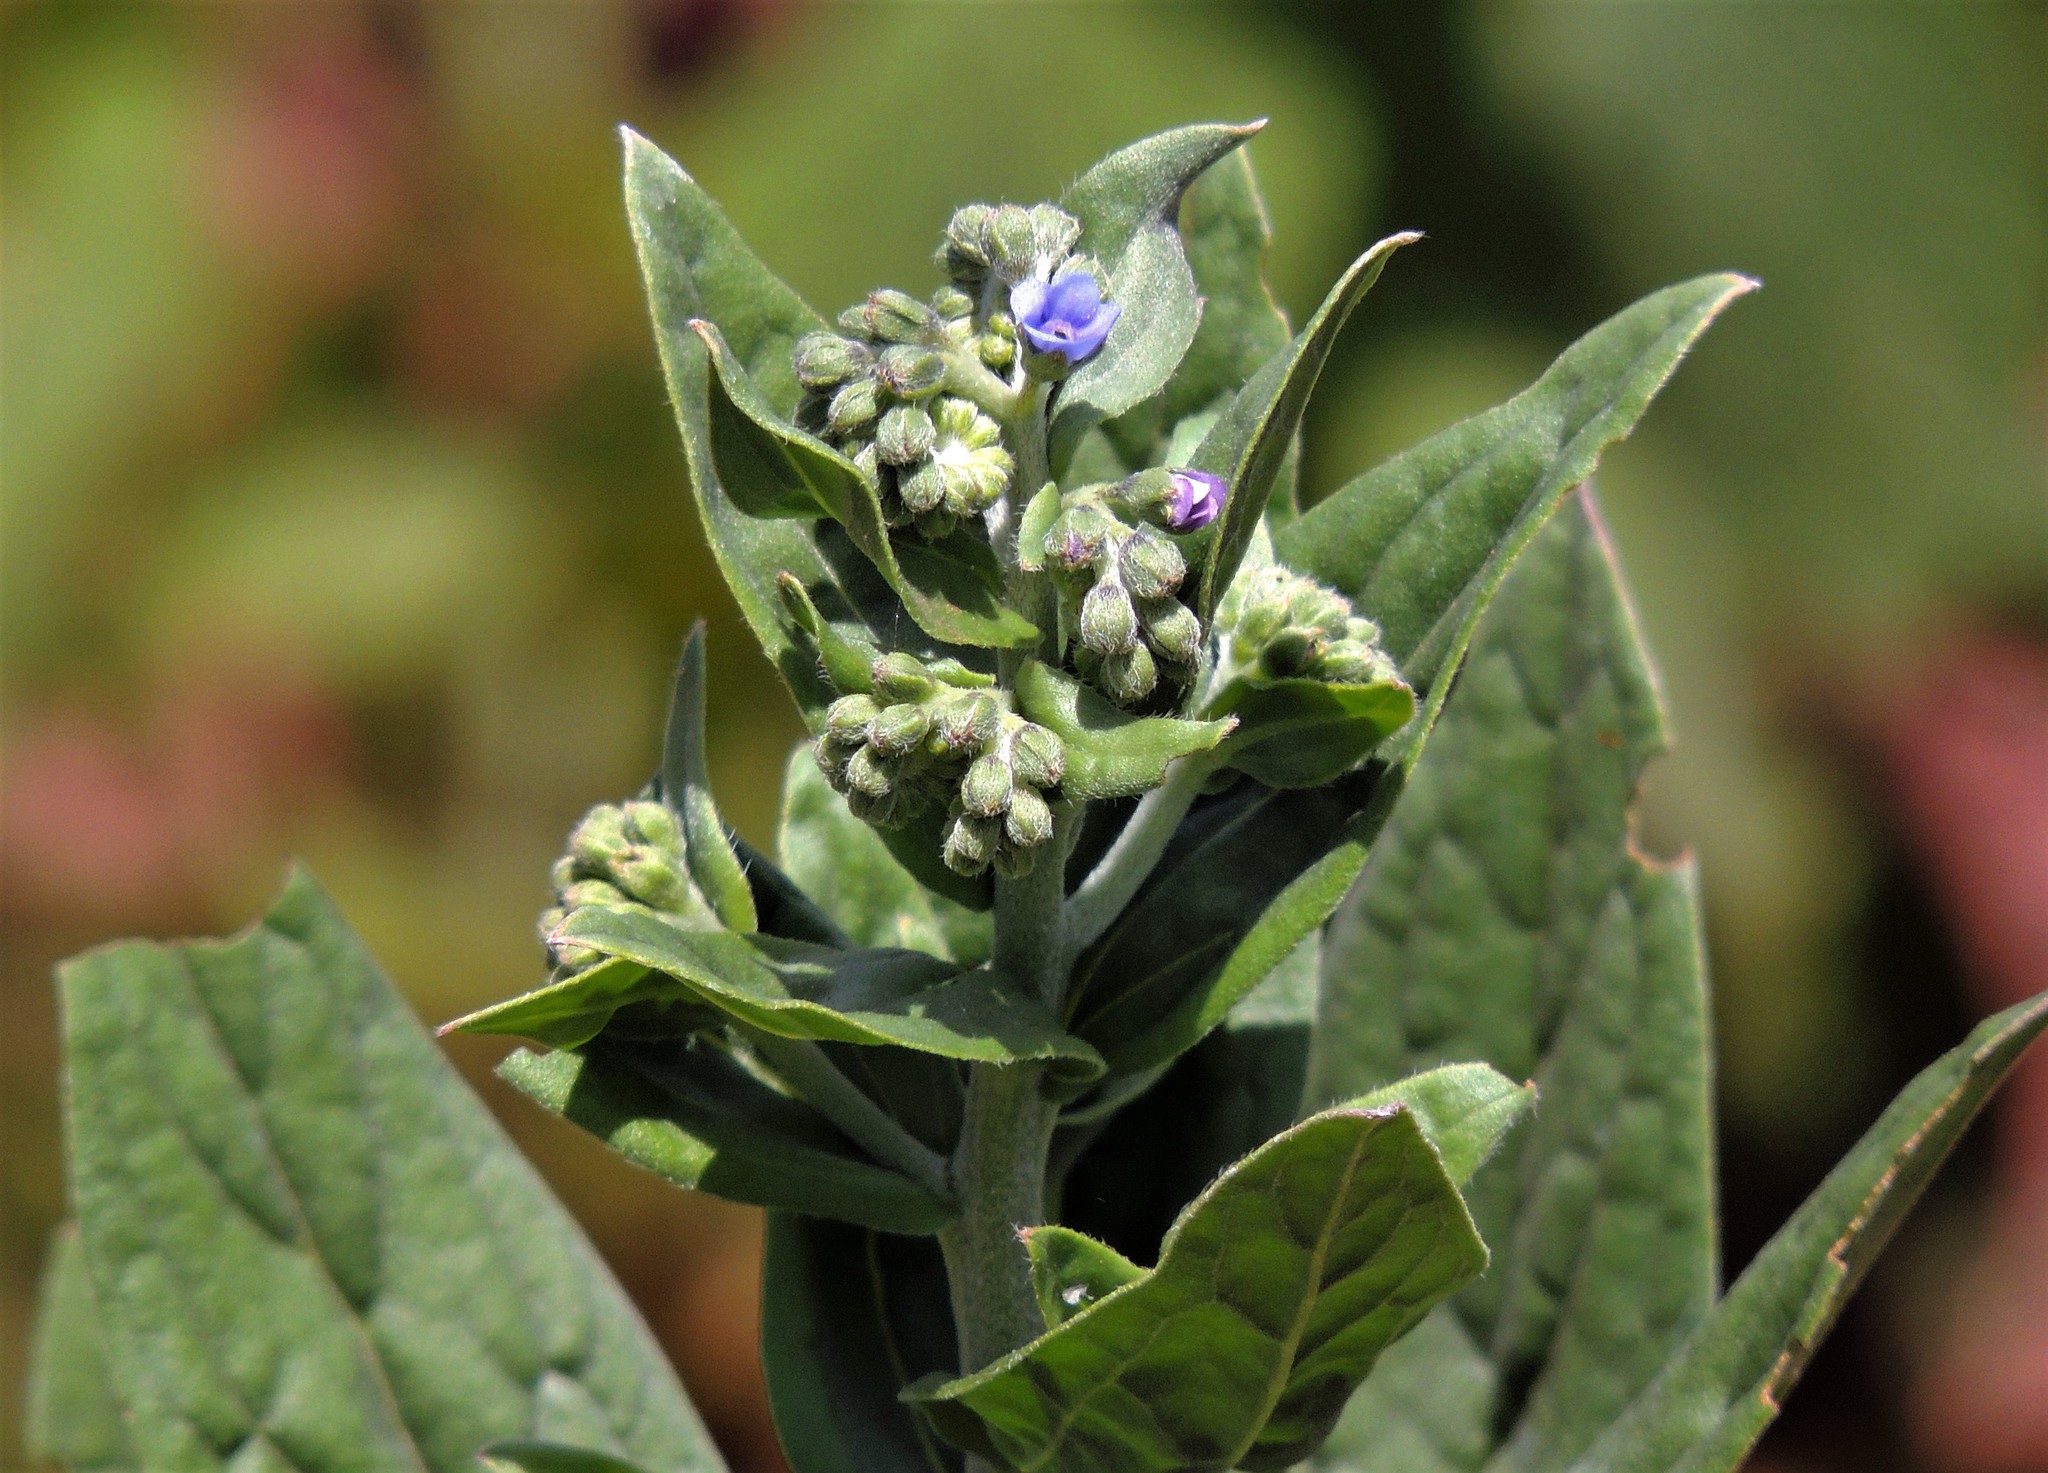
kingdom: Plantae
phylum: Tracheophyta
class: Magnoliopsida
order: Boraginales
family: Boraginaceae
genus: Cynoglossum
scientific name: Cynoglossum amabile
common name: Chinese hound's tongue
